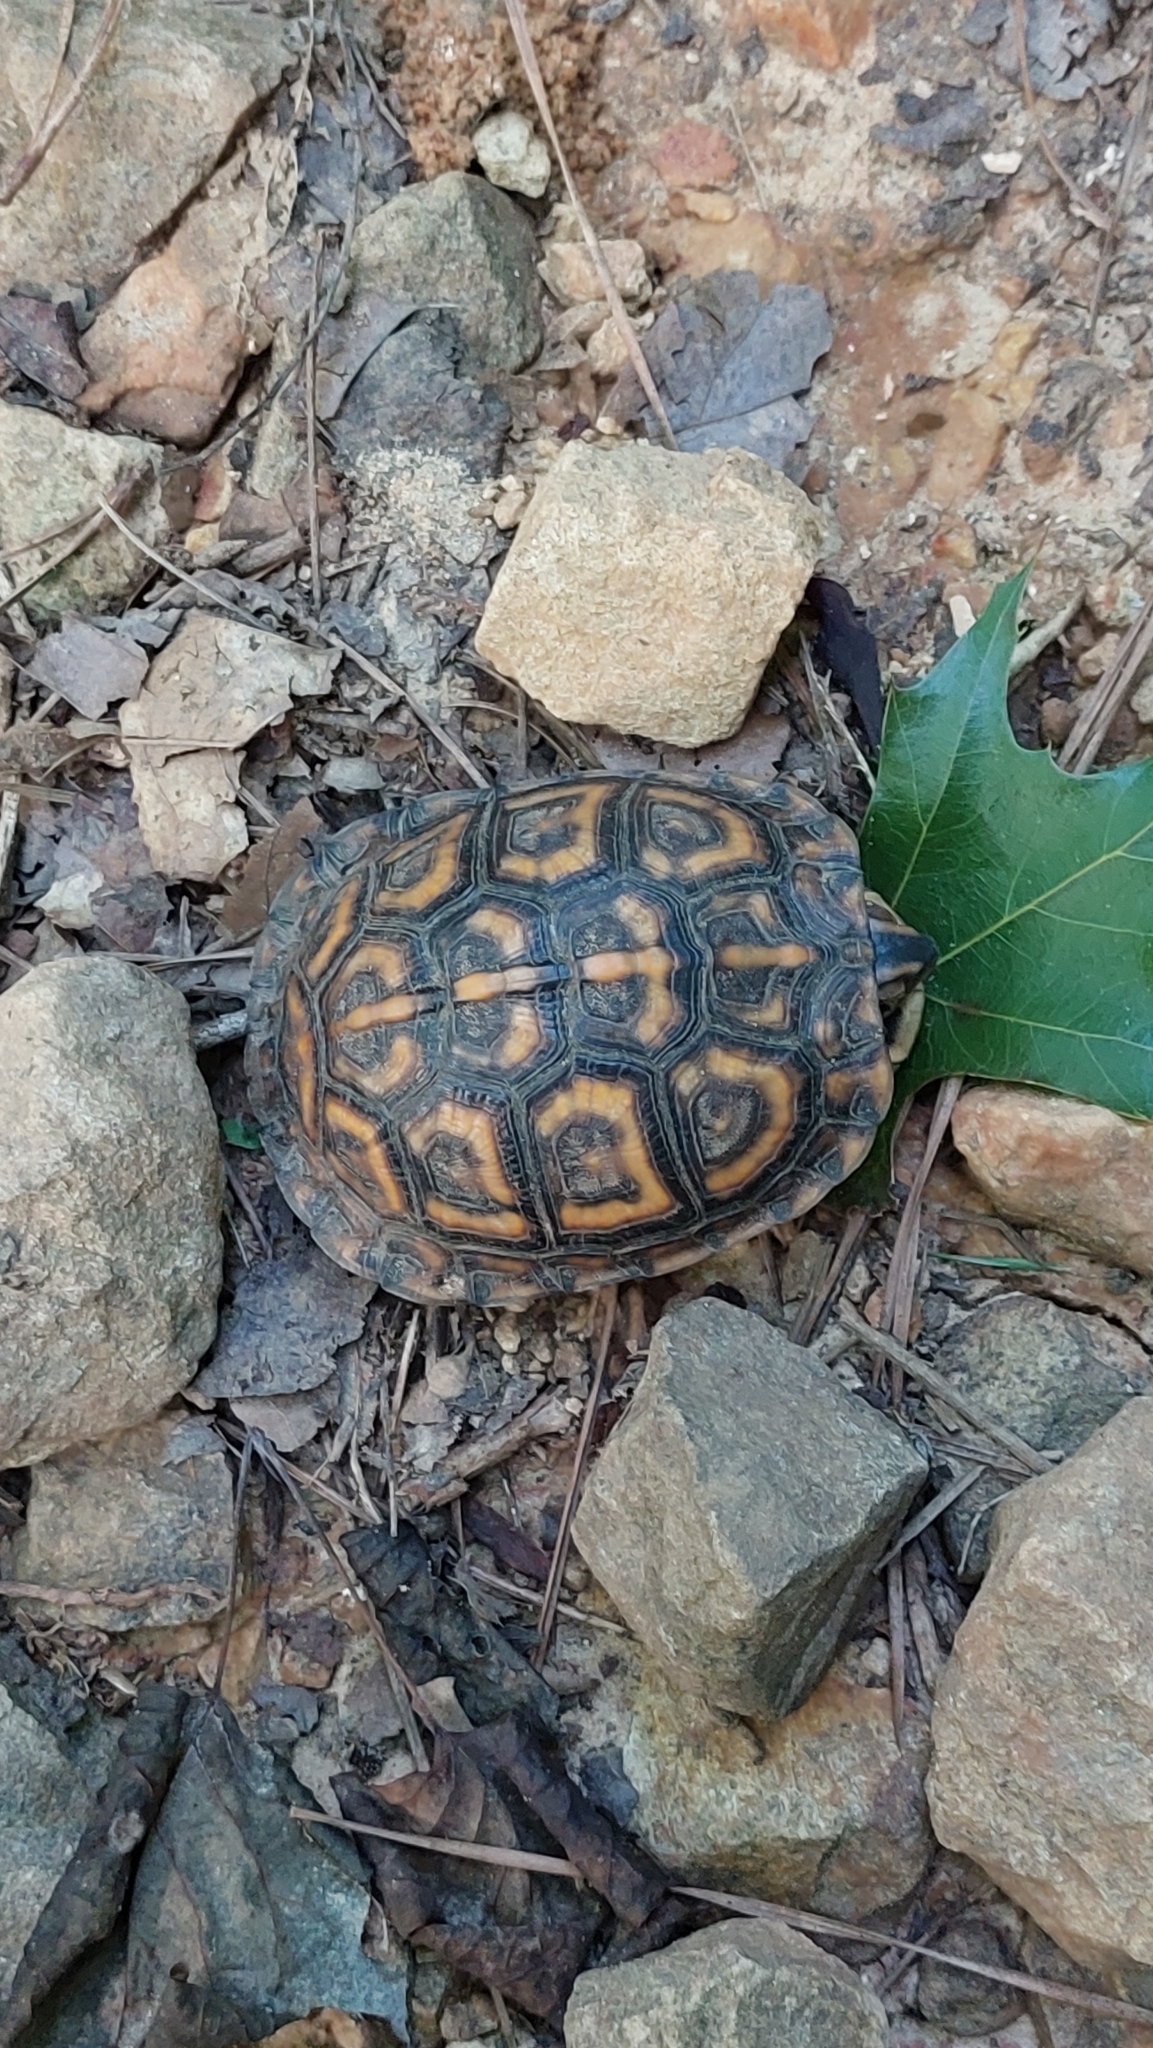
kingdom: Animalia
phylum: Chordata
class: Testudines
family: Emydidae
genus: Terrapene
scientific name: Terrapene carolina
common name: Common box turtle
